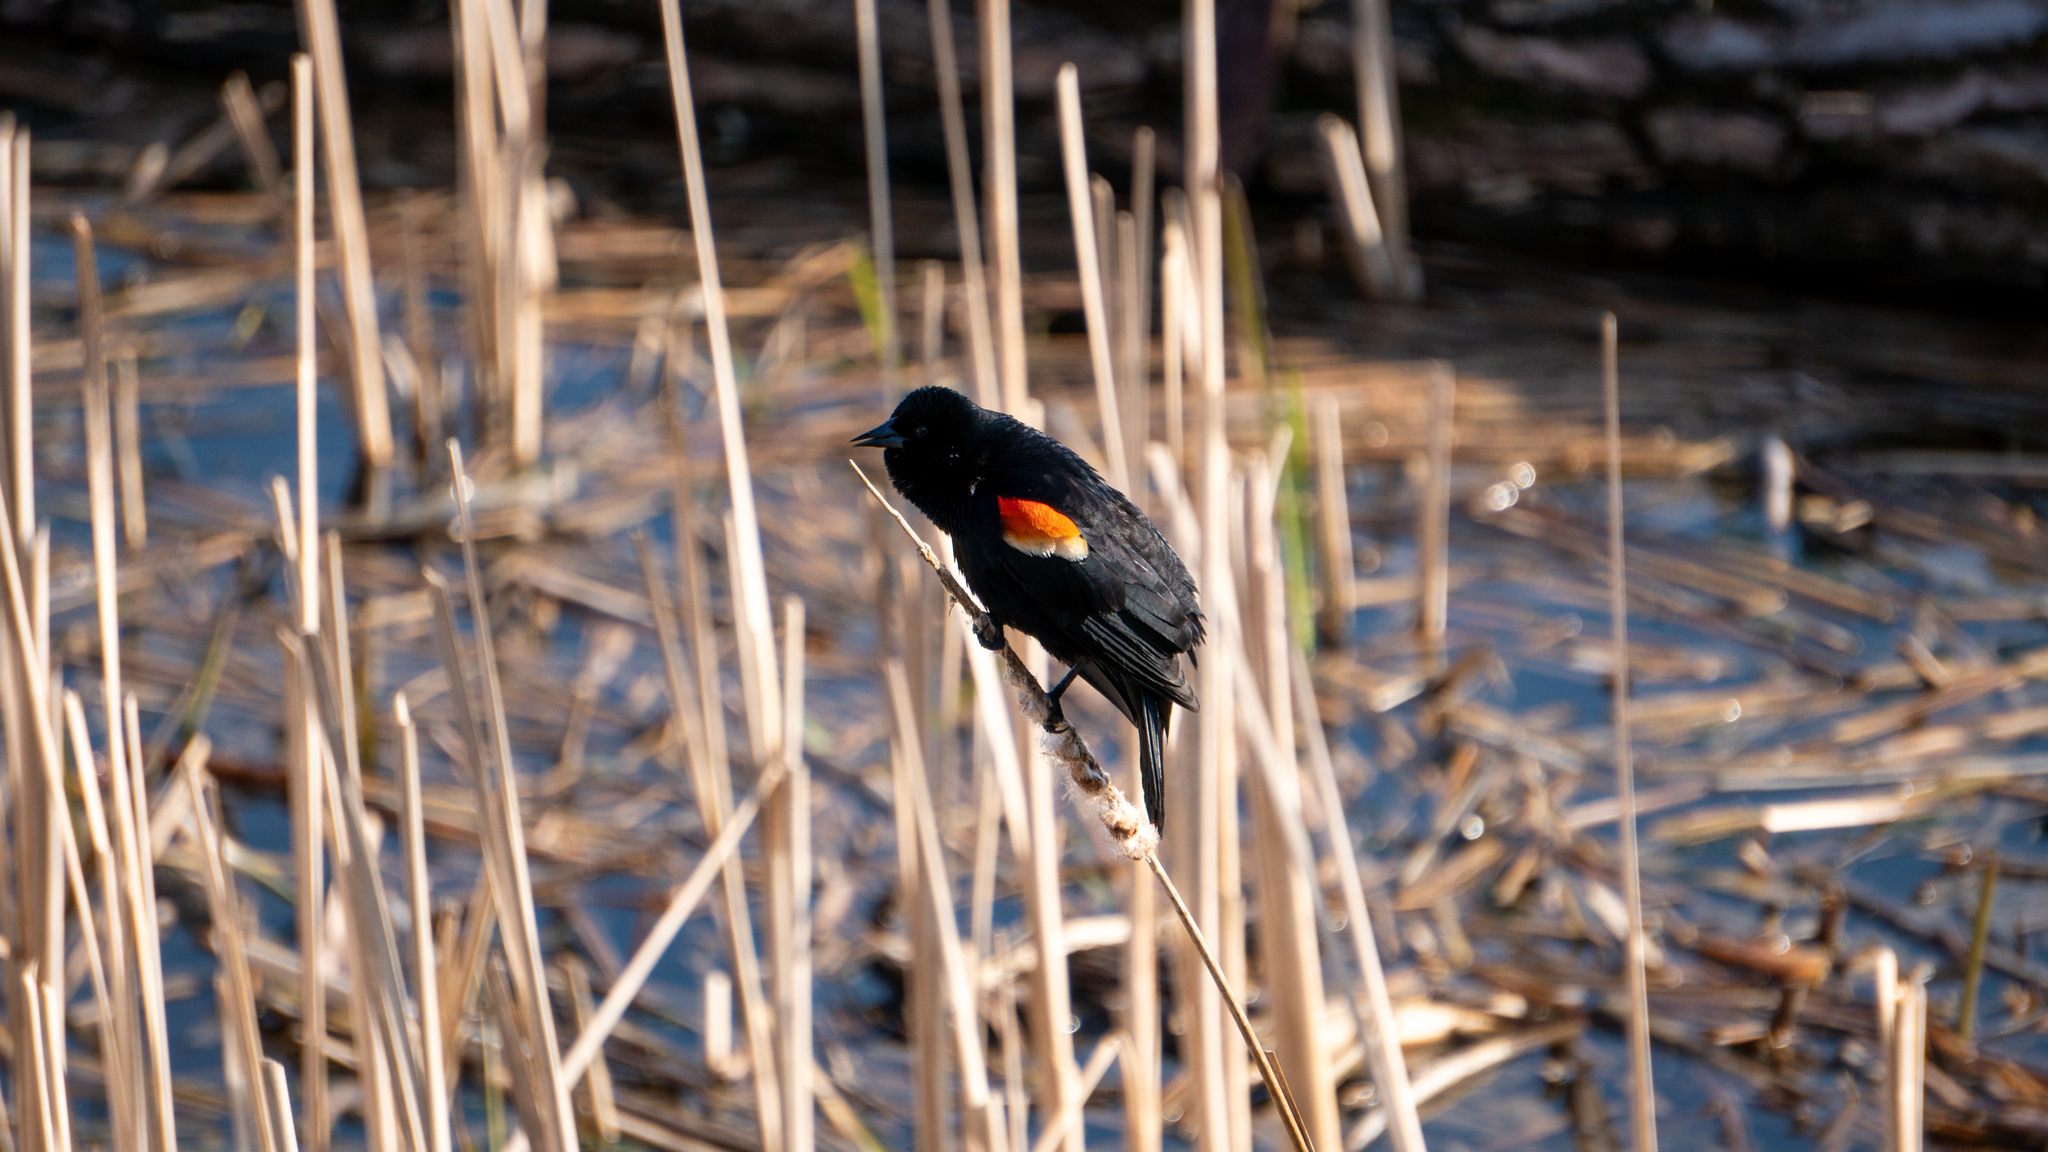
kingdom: Animalia
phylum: Chordata
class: Aves
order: Passeriformes
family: Icteridae
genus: Agelaius
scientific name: Agelaius phoeniceus
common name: Red-winged blackbird
